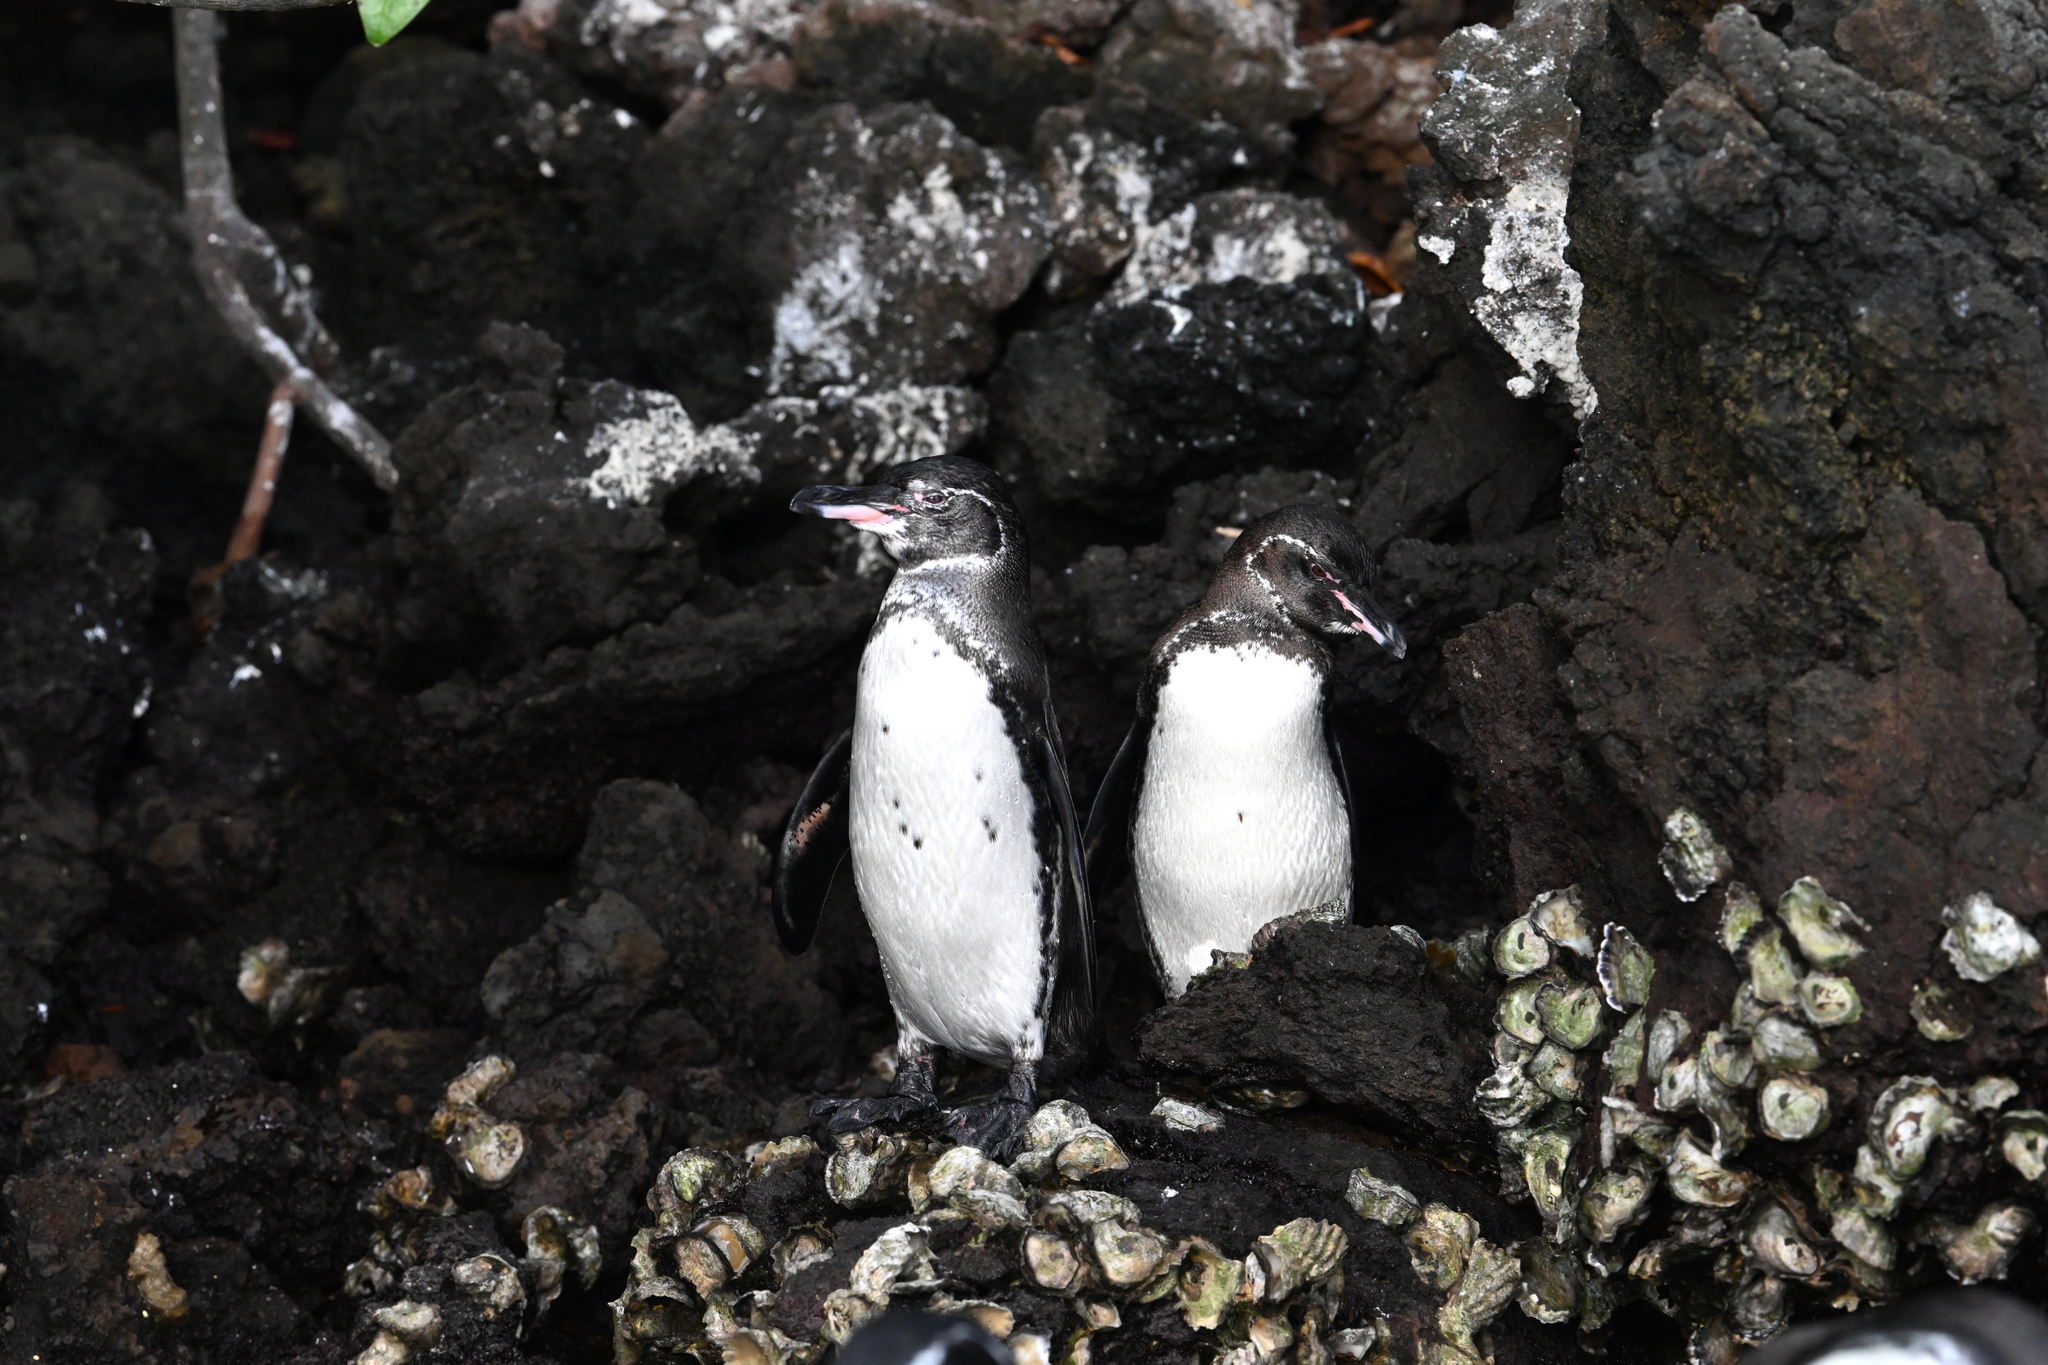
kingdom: Animalia
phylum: Chordata
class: Aves
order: Sphenisciformes
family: Spheniscidae
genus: Spheniscus
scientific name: Spheniscus mendiculus
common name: Galapagos penguin
